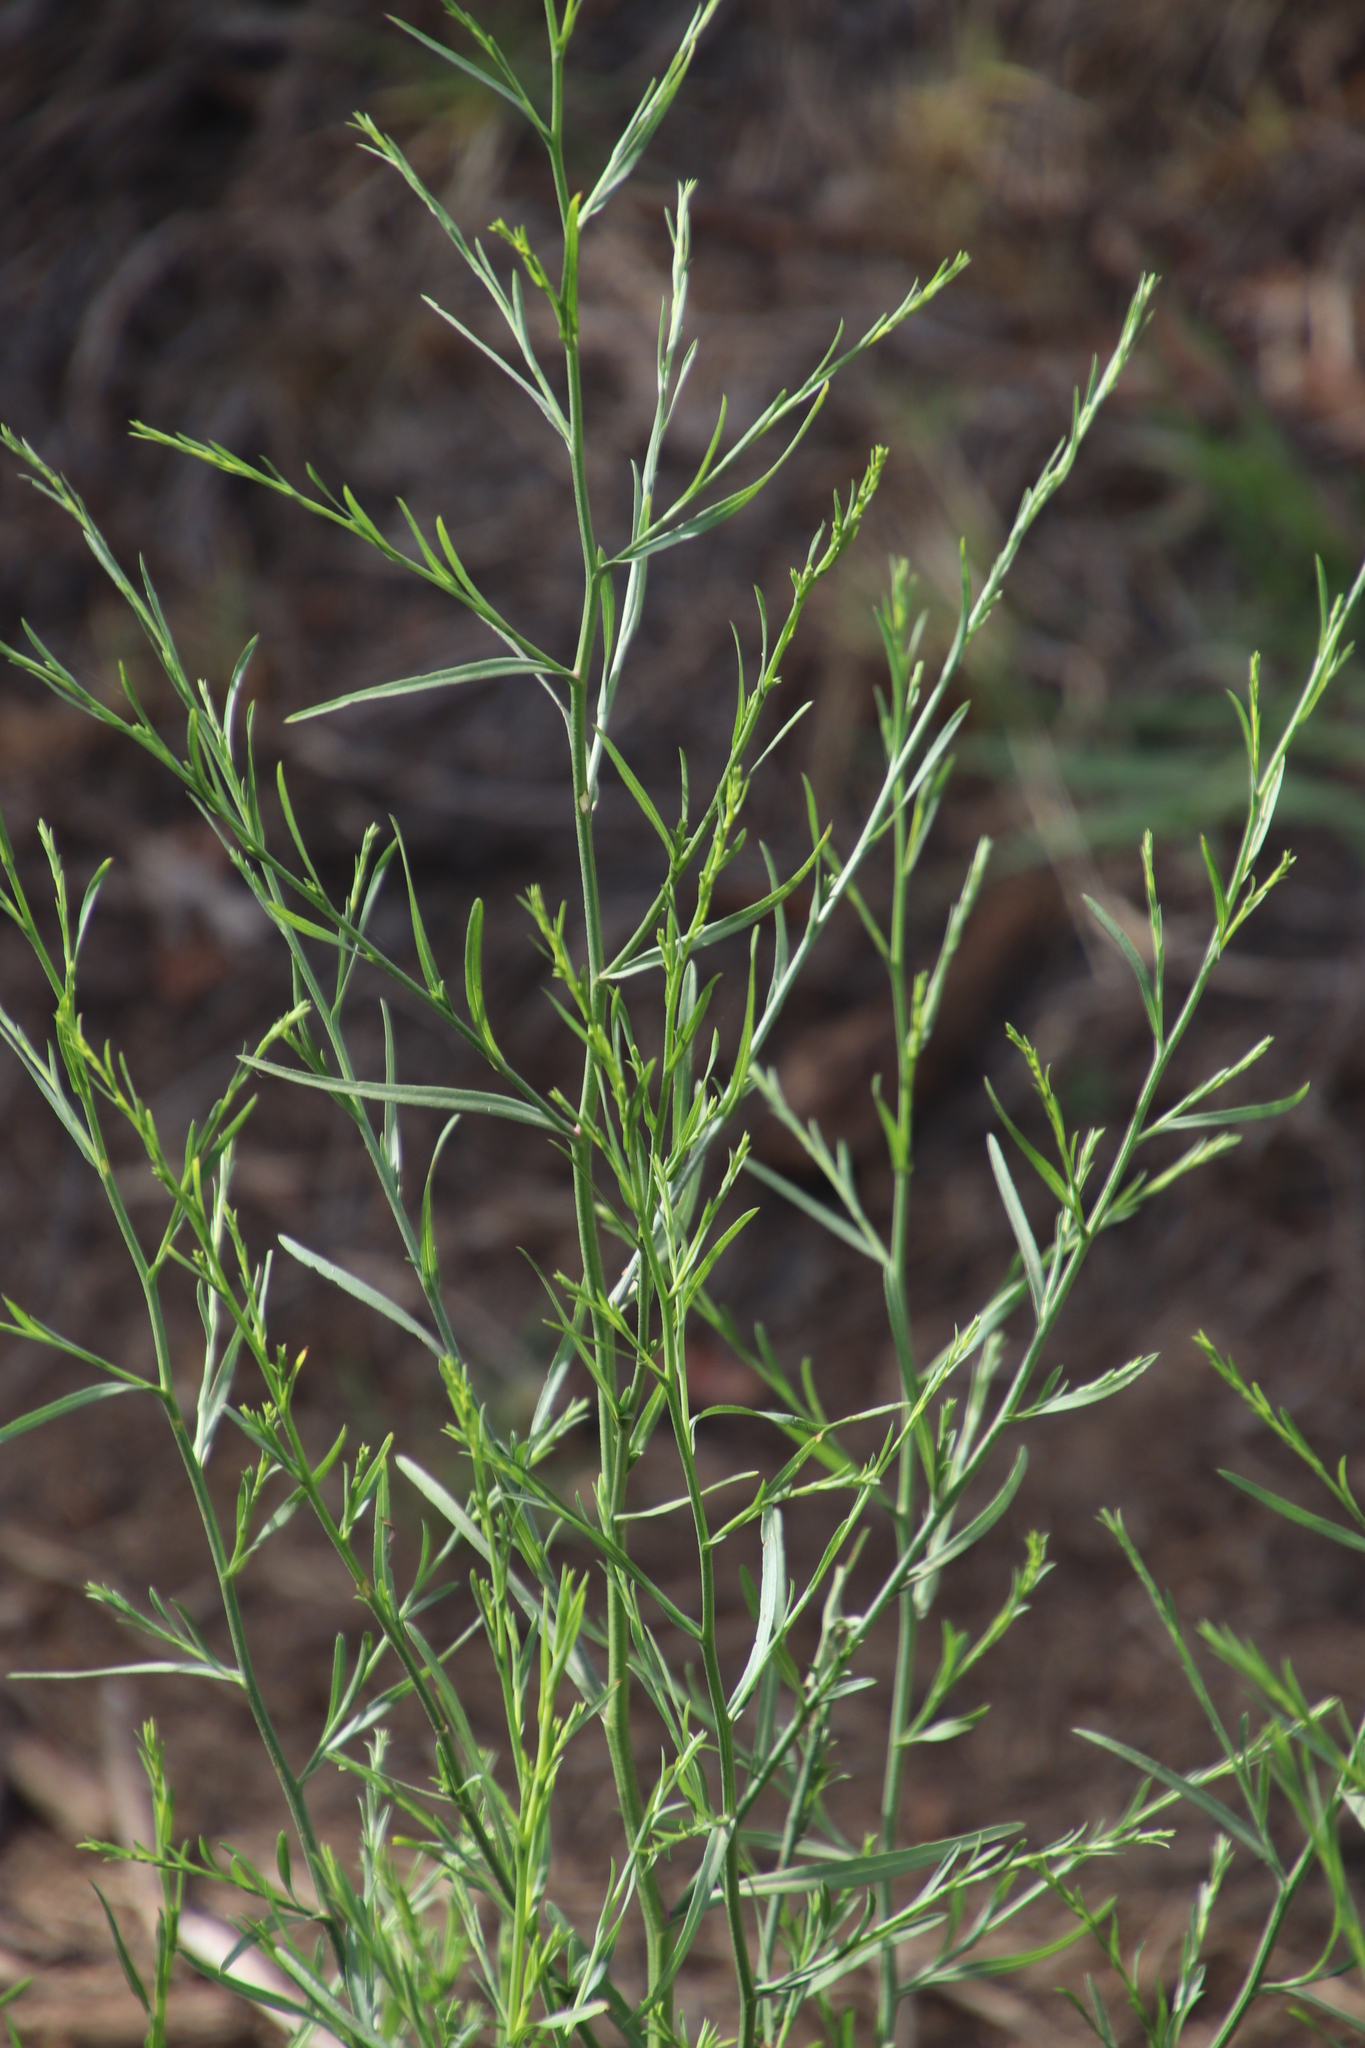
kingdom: Plantae
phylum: Tracheophyta
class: Magnoliopsida
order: Asterales
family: Asteraceae
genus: Symphyotrichum
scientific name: Symphyotrichum subulatum
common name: Annual saltmarsh aster
